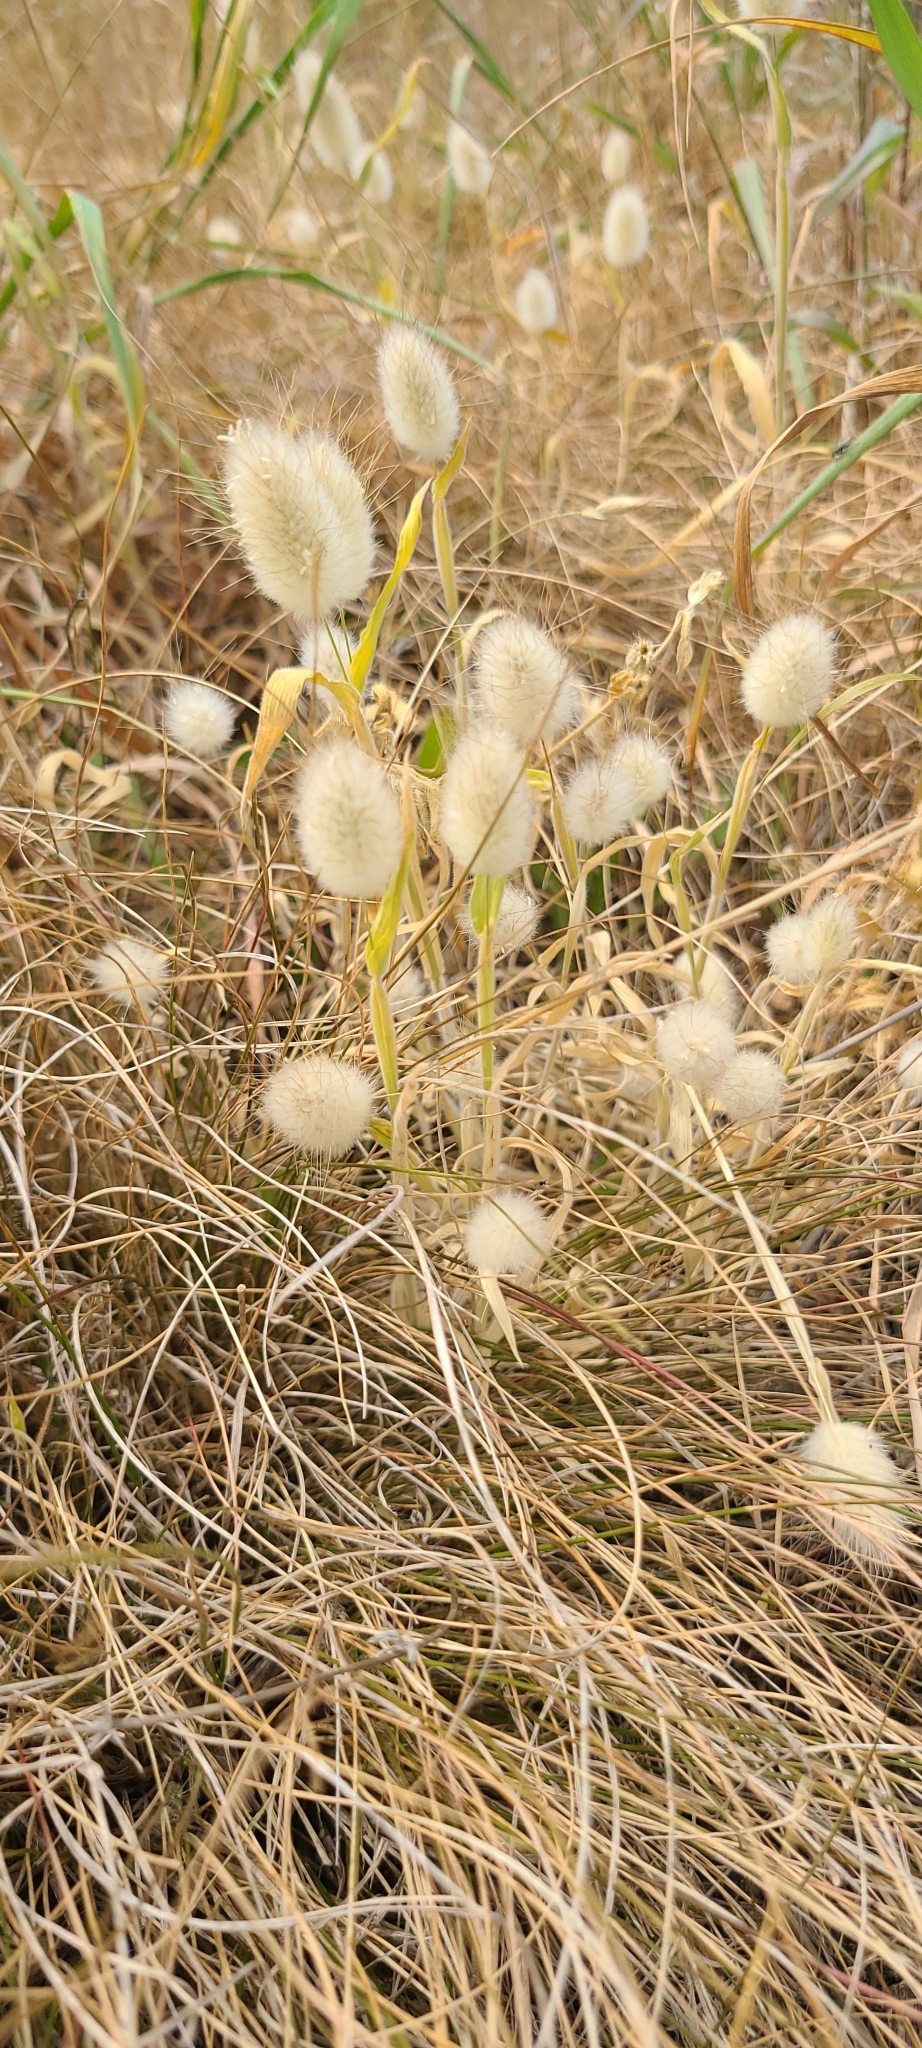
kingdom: Plantae
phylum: Tracheophyta
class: Liliopsida
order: Poales
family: Poaceae
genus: Lagurus
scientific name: Lagurus ovatus
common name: Hare's-tail
